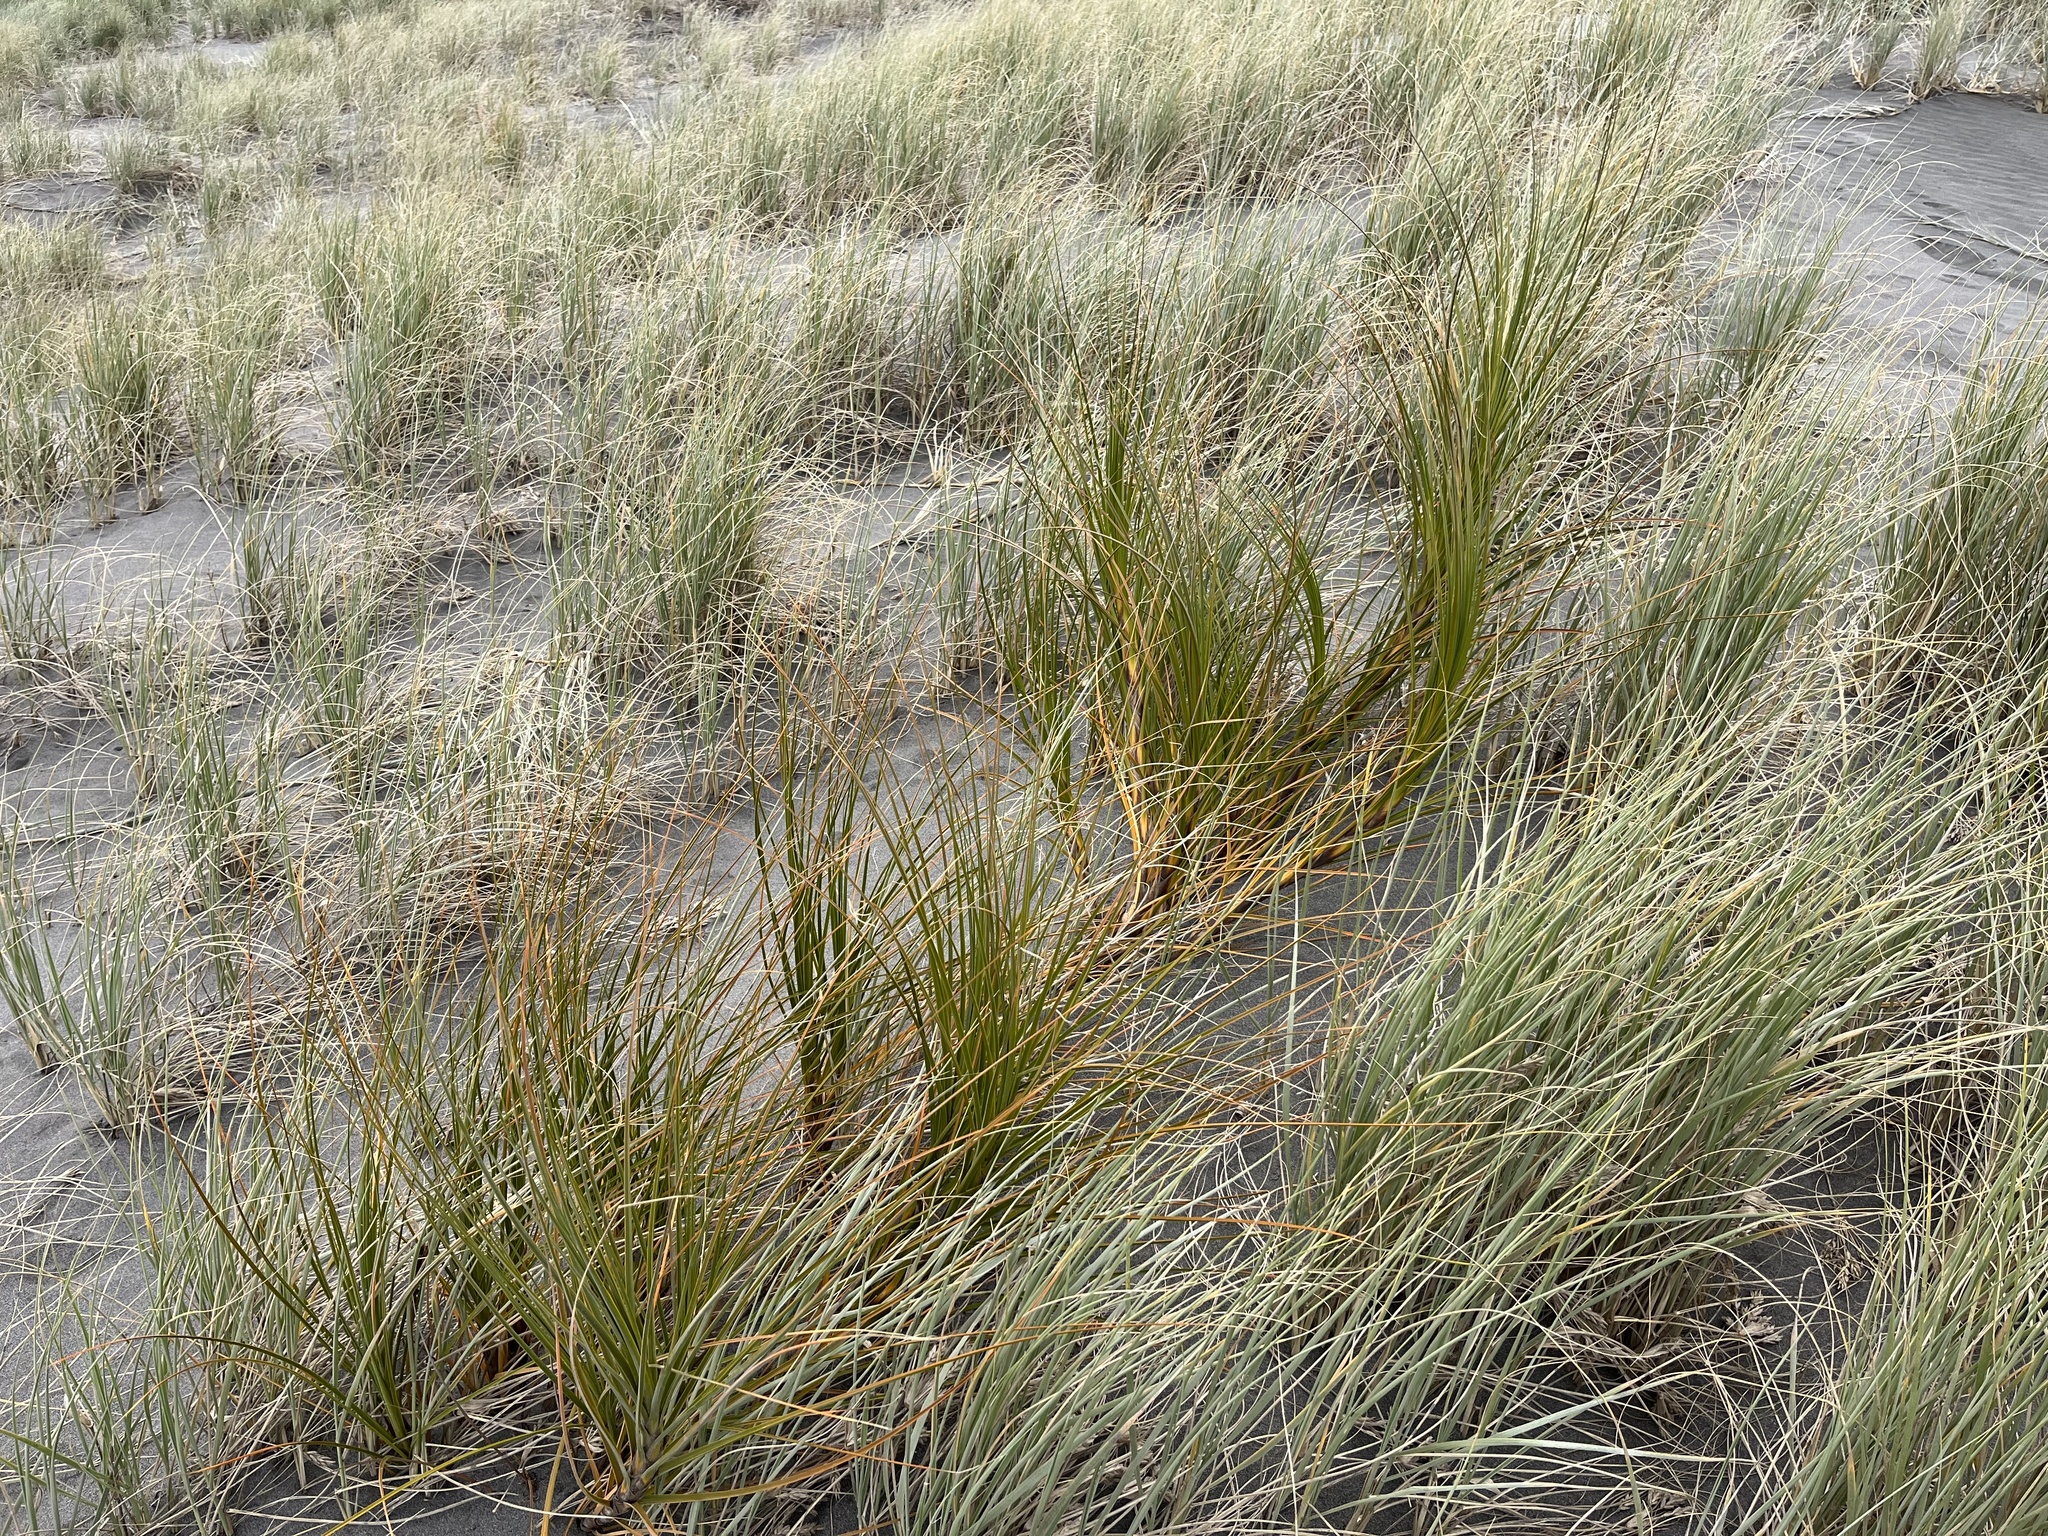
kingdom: Plantae
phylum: Tracheophyta
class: Liliopsida
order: Poales
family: Cyperaceae
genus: Ficinia
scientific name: Ficinia spiralis
